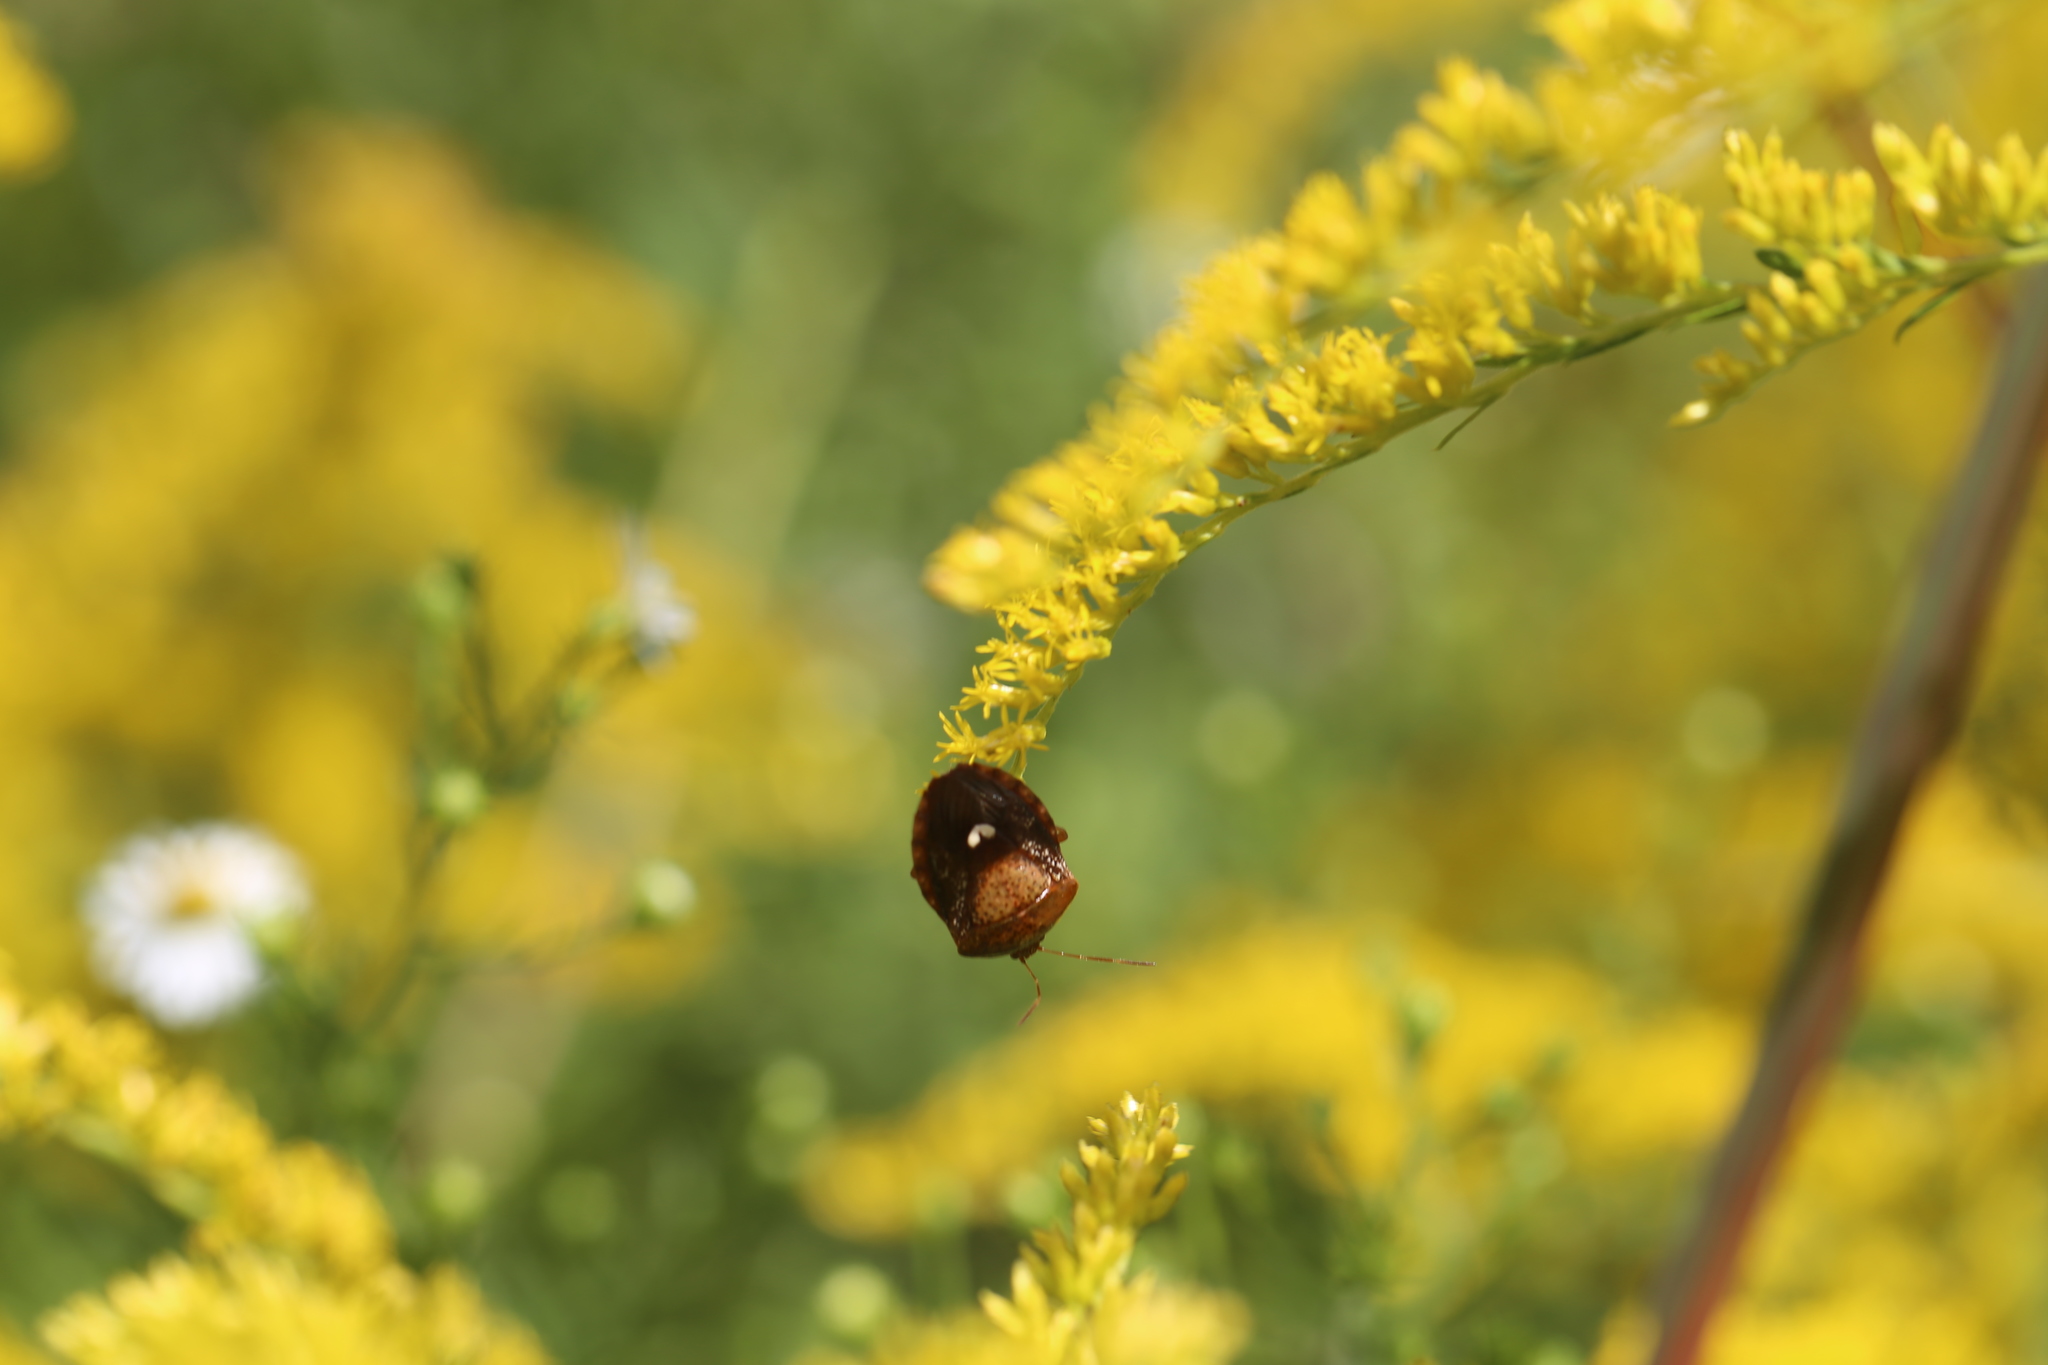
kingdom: Animalia
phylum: Arthropoda
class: Insecta
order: Hemiptera
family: Pentatomidae
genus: Edessa
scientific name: Edessa bifida
